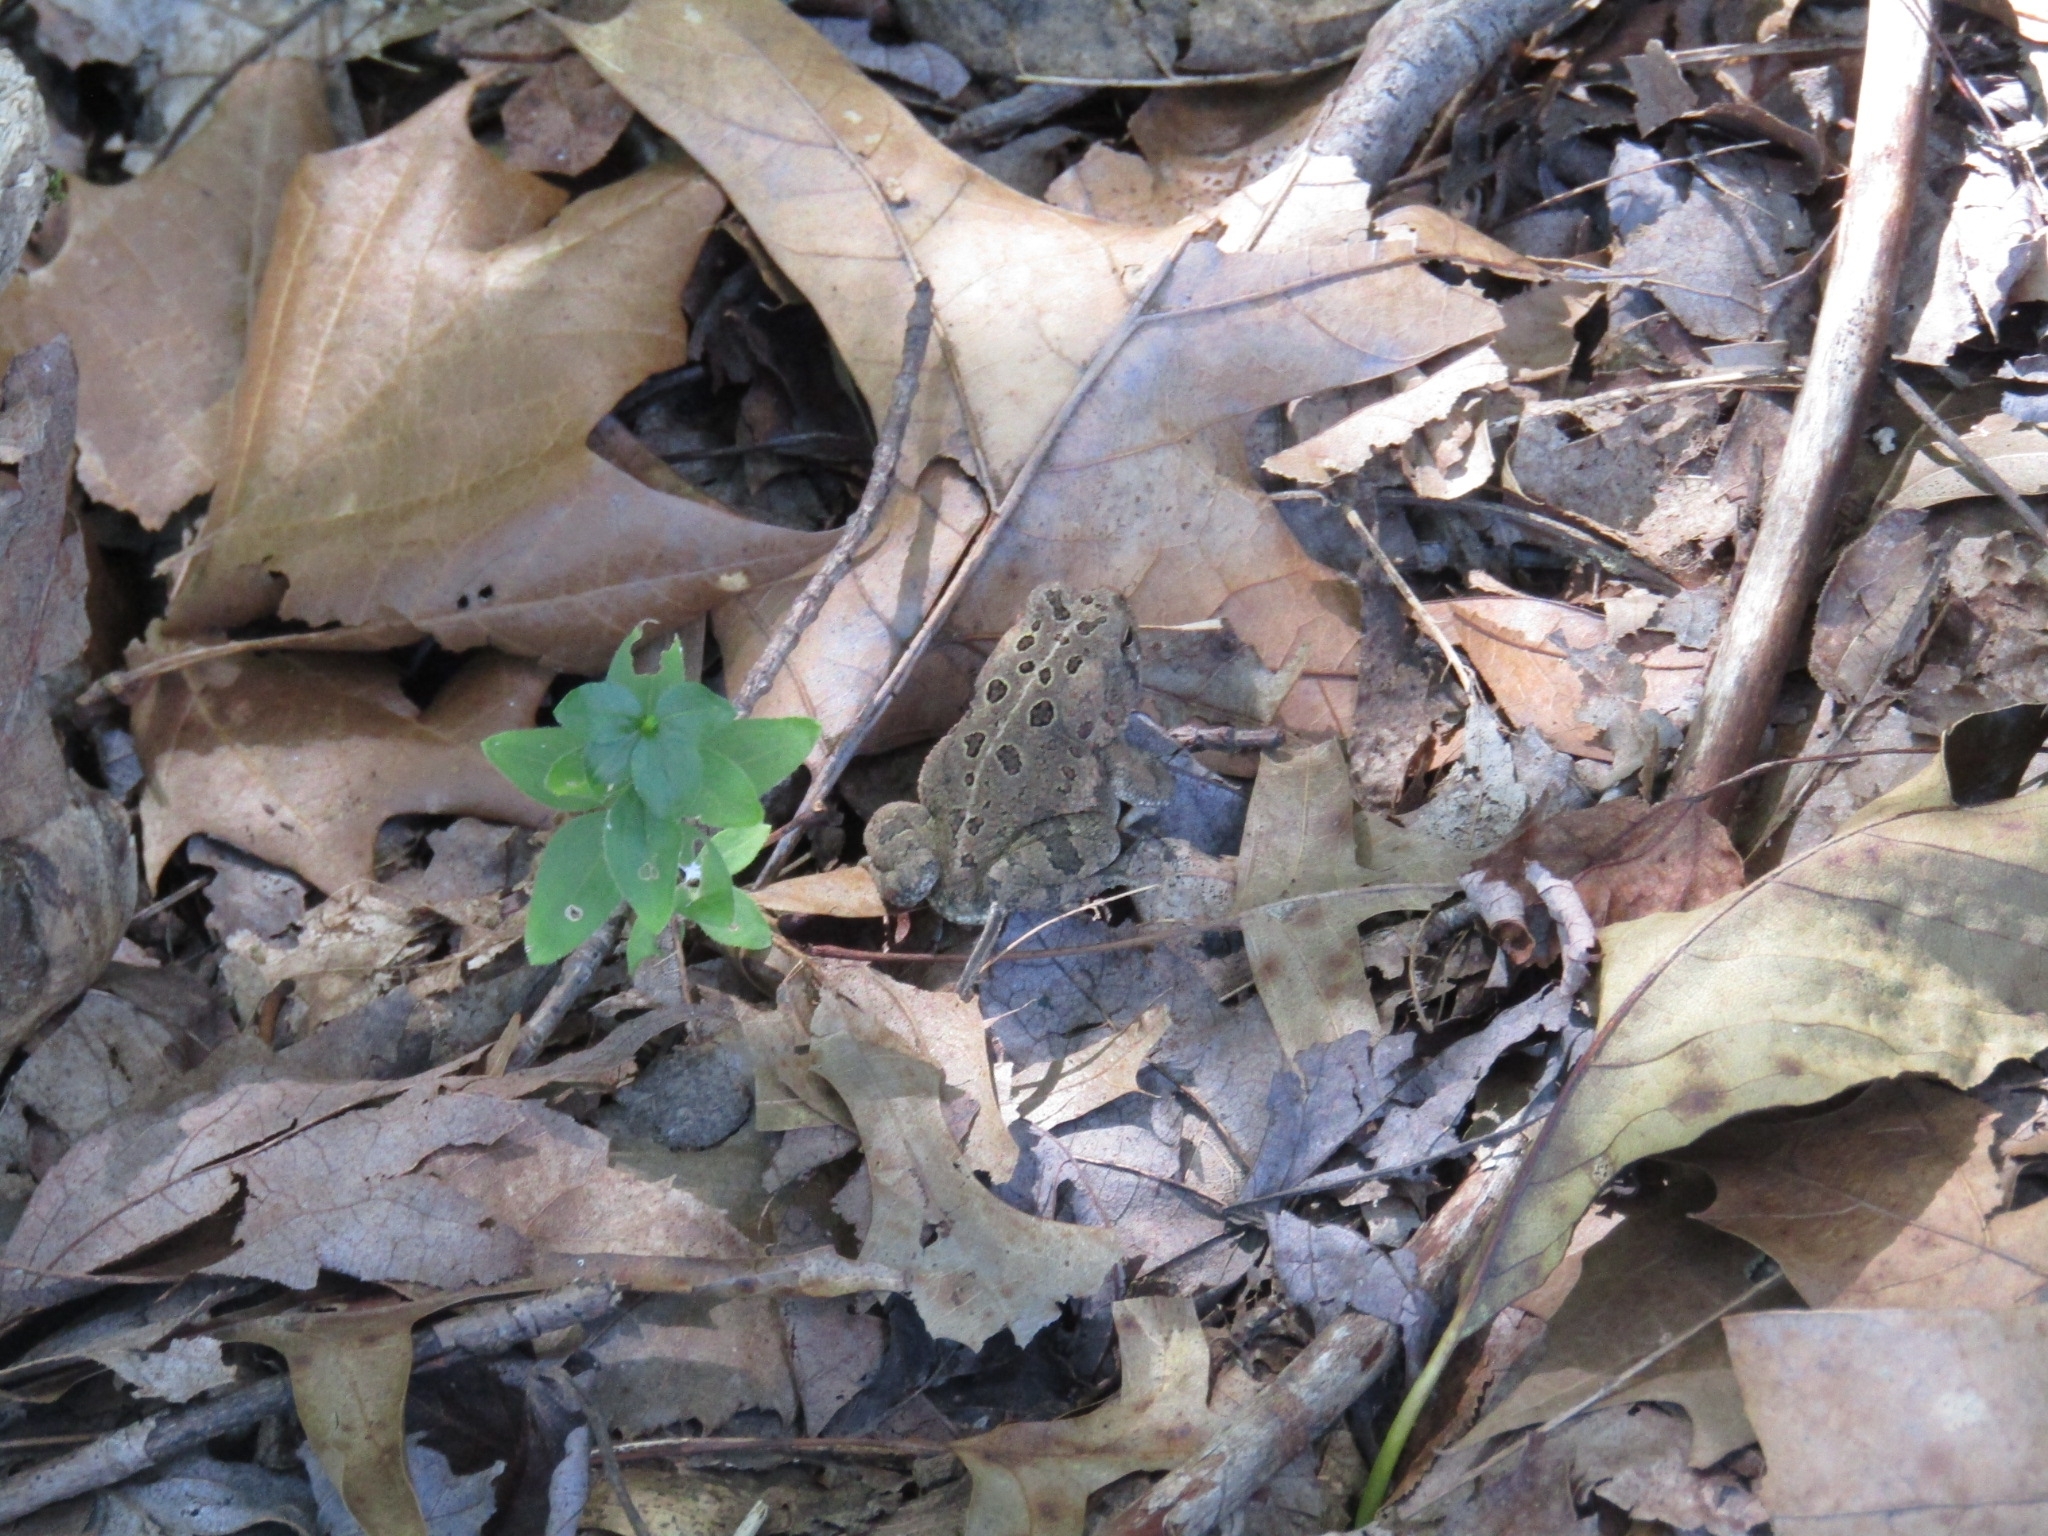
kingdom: Animalia
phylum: Chordata
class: Amphibia
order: Anura
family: Bufonidae
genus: Anaxyrus
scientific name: Anaxyrus fowleri
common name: Fowler's toad
